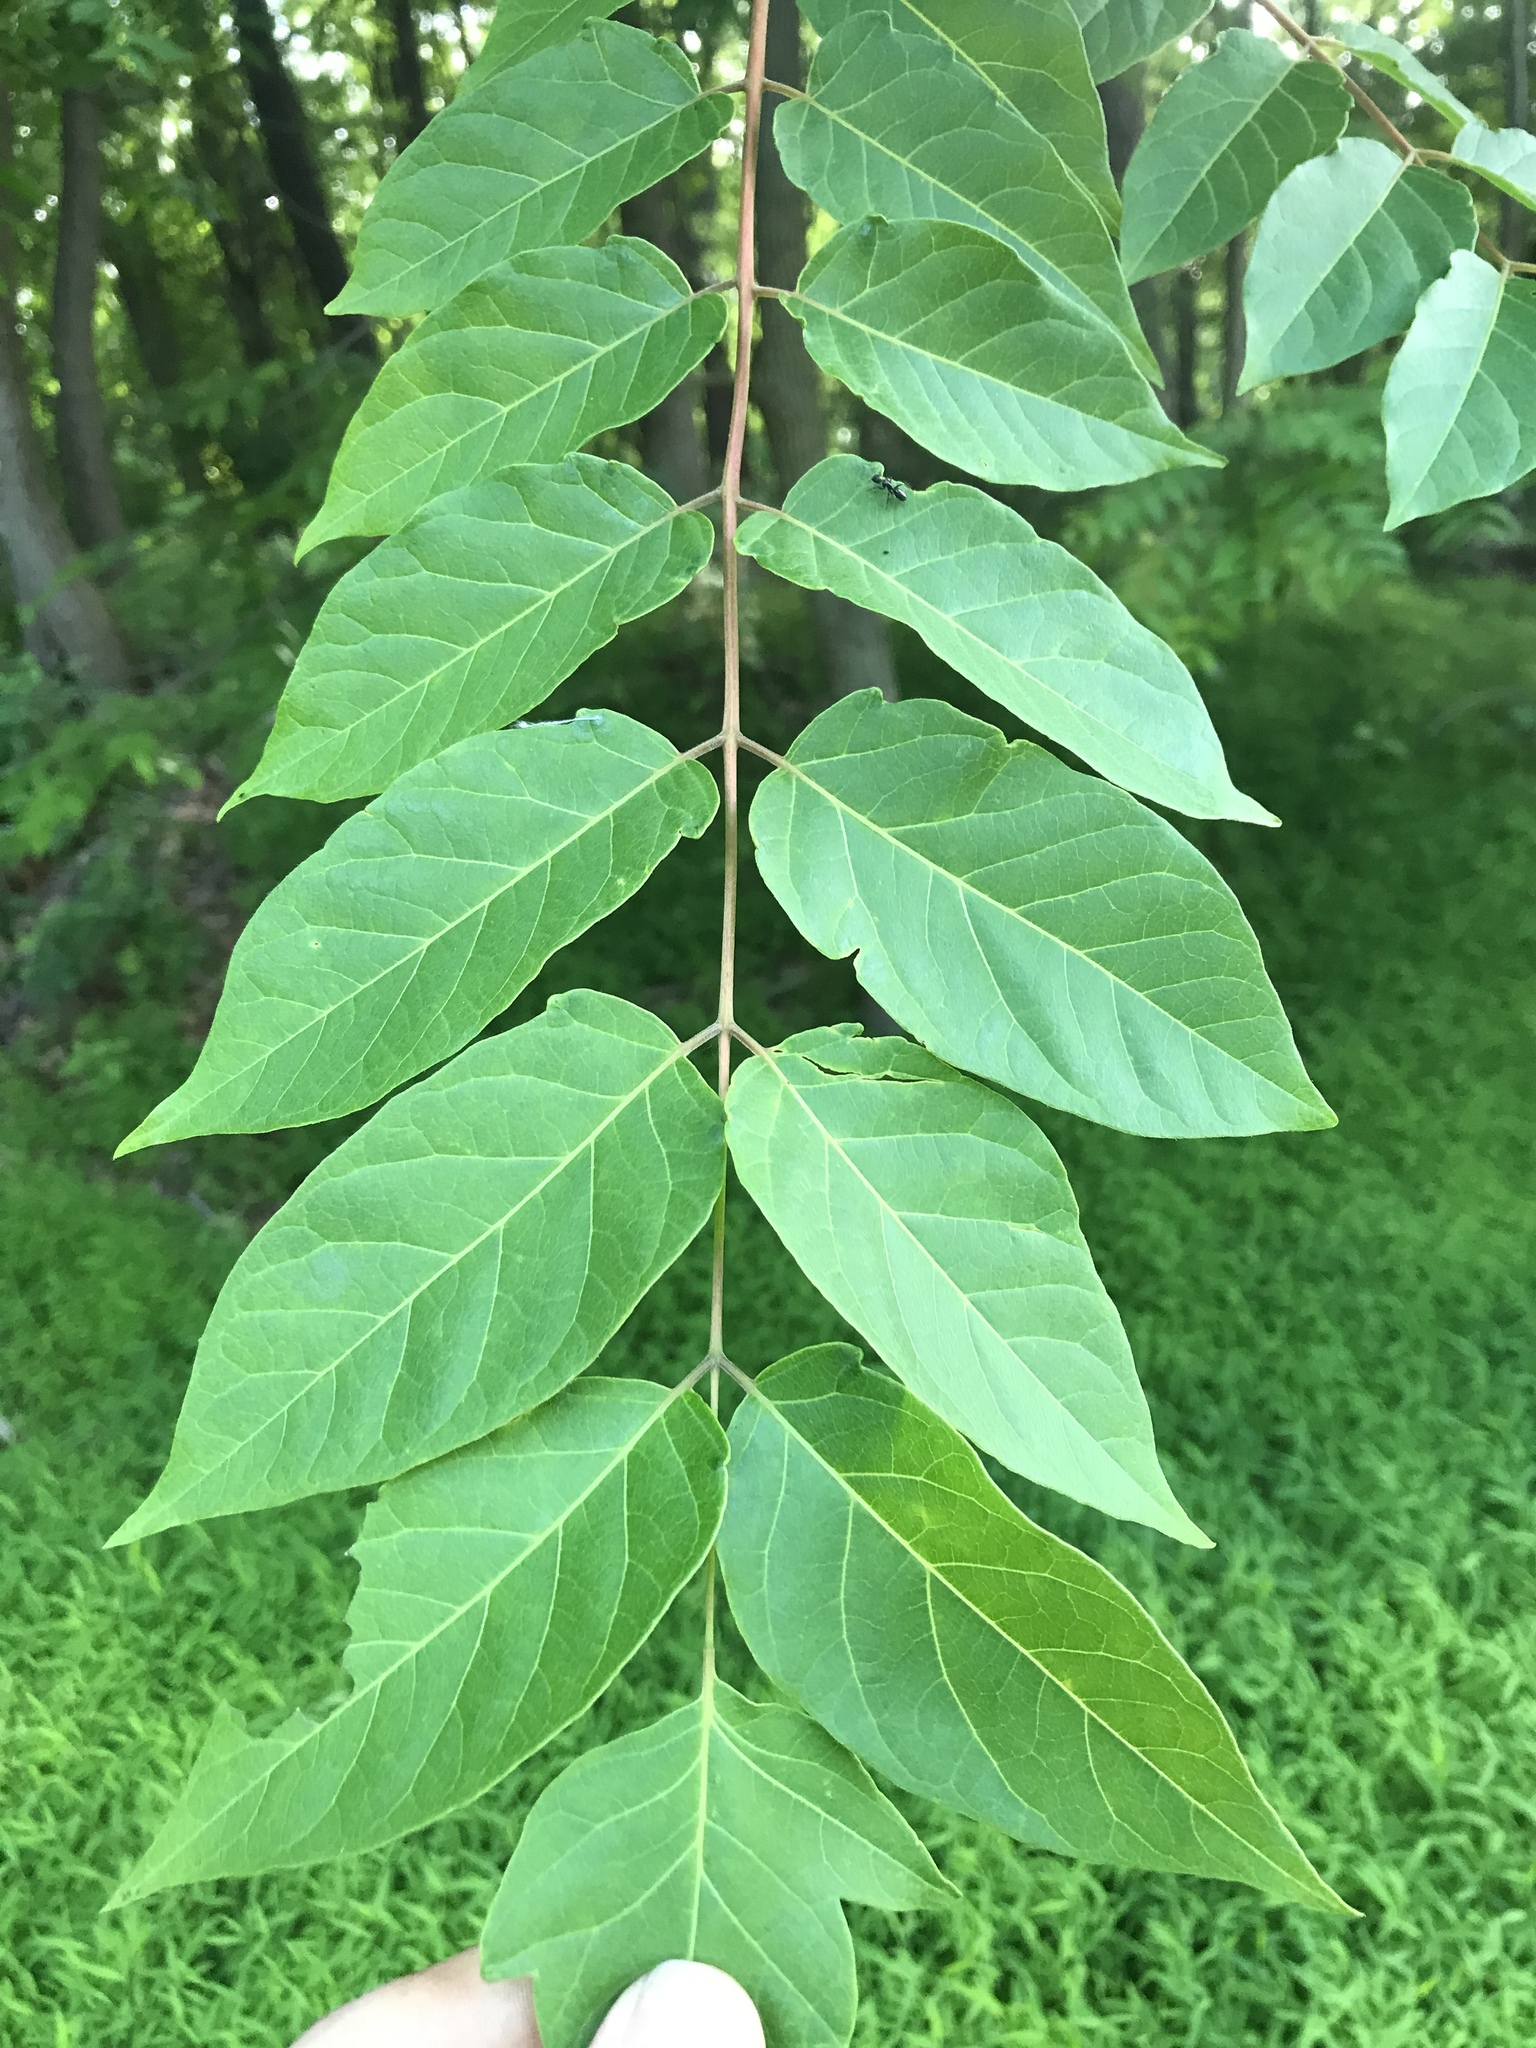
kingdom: Plantae
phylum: Tracheophyta
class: Magnoliopsida
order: Sapindales
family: Simaroubaceae
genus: Ailanthus
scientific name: Ailanthus altissima
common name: Tree-of-heaven
